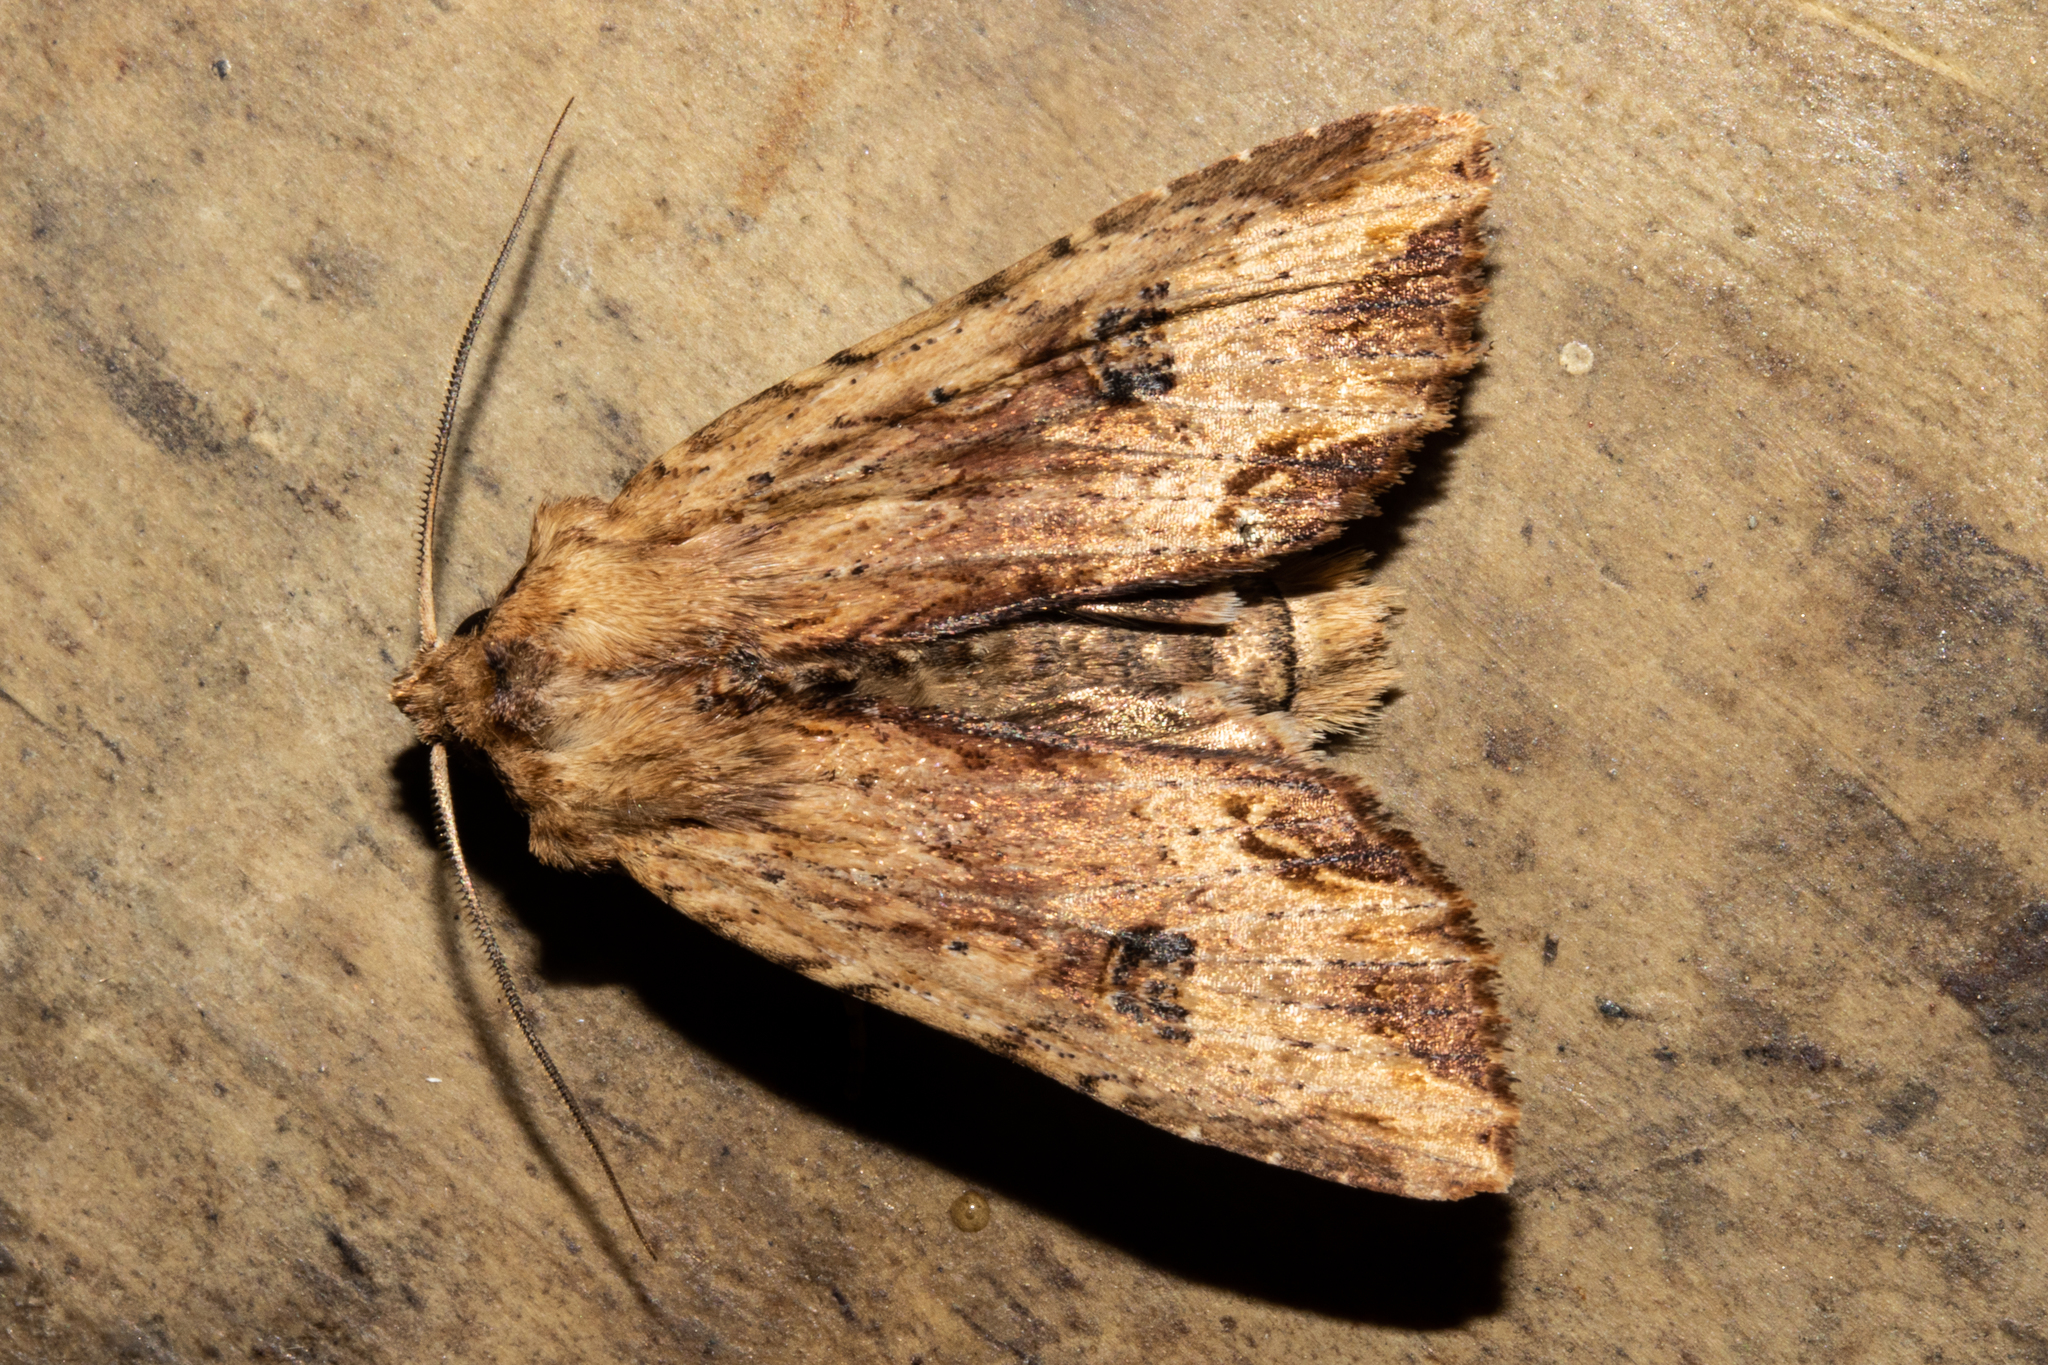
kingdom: Animalia
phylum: Arthropoda
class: Insecta
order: Lepidoptera
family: Noctuidae
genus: Ichneutica
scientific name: Ichneutica
